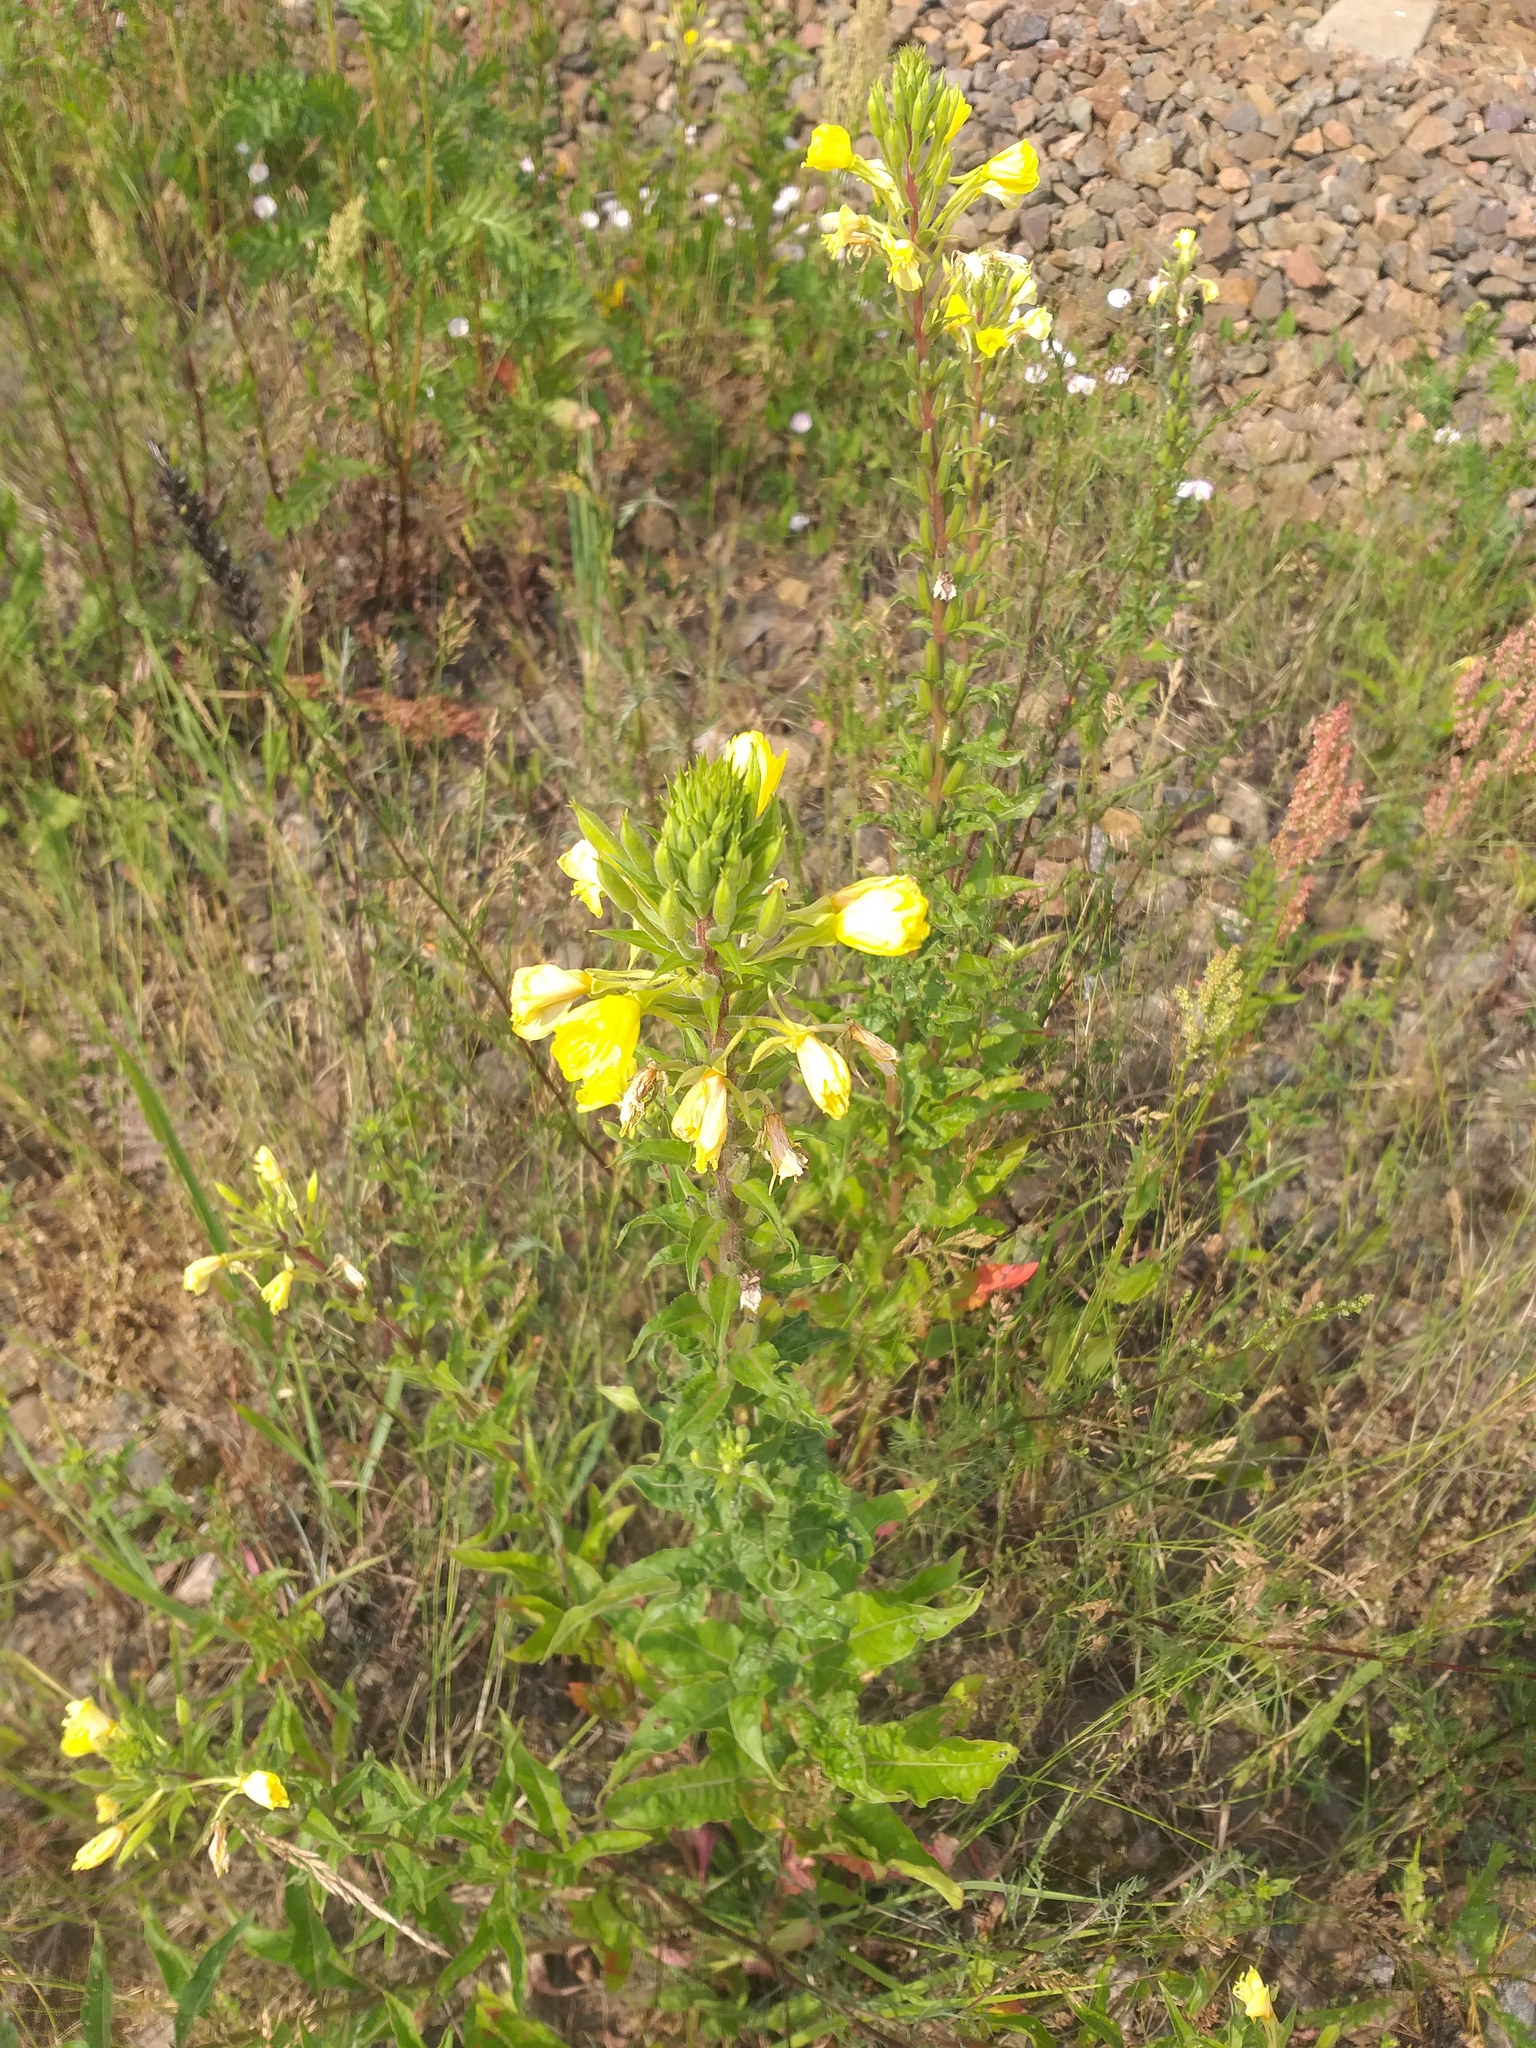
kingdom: Plantae
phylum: Tracheophyta
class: Magnoliopsida
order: Myrtales
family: Onagraceae
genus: Oenothera
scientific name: Oenothera rubricaulis
